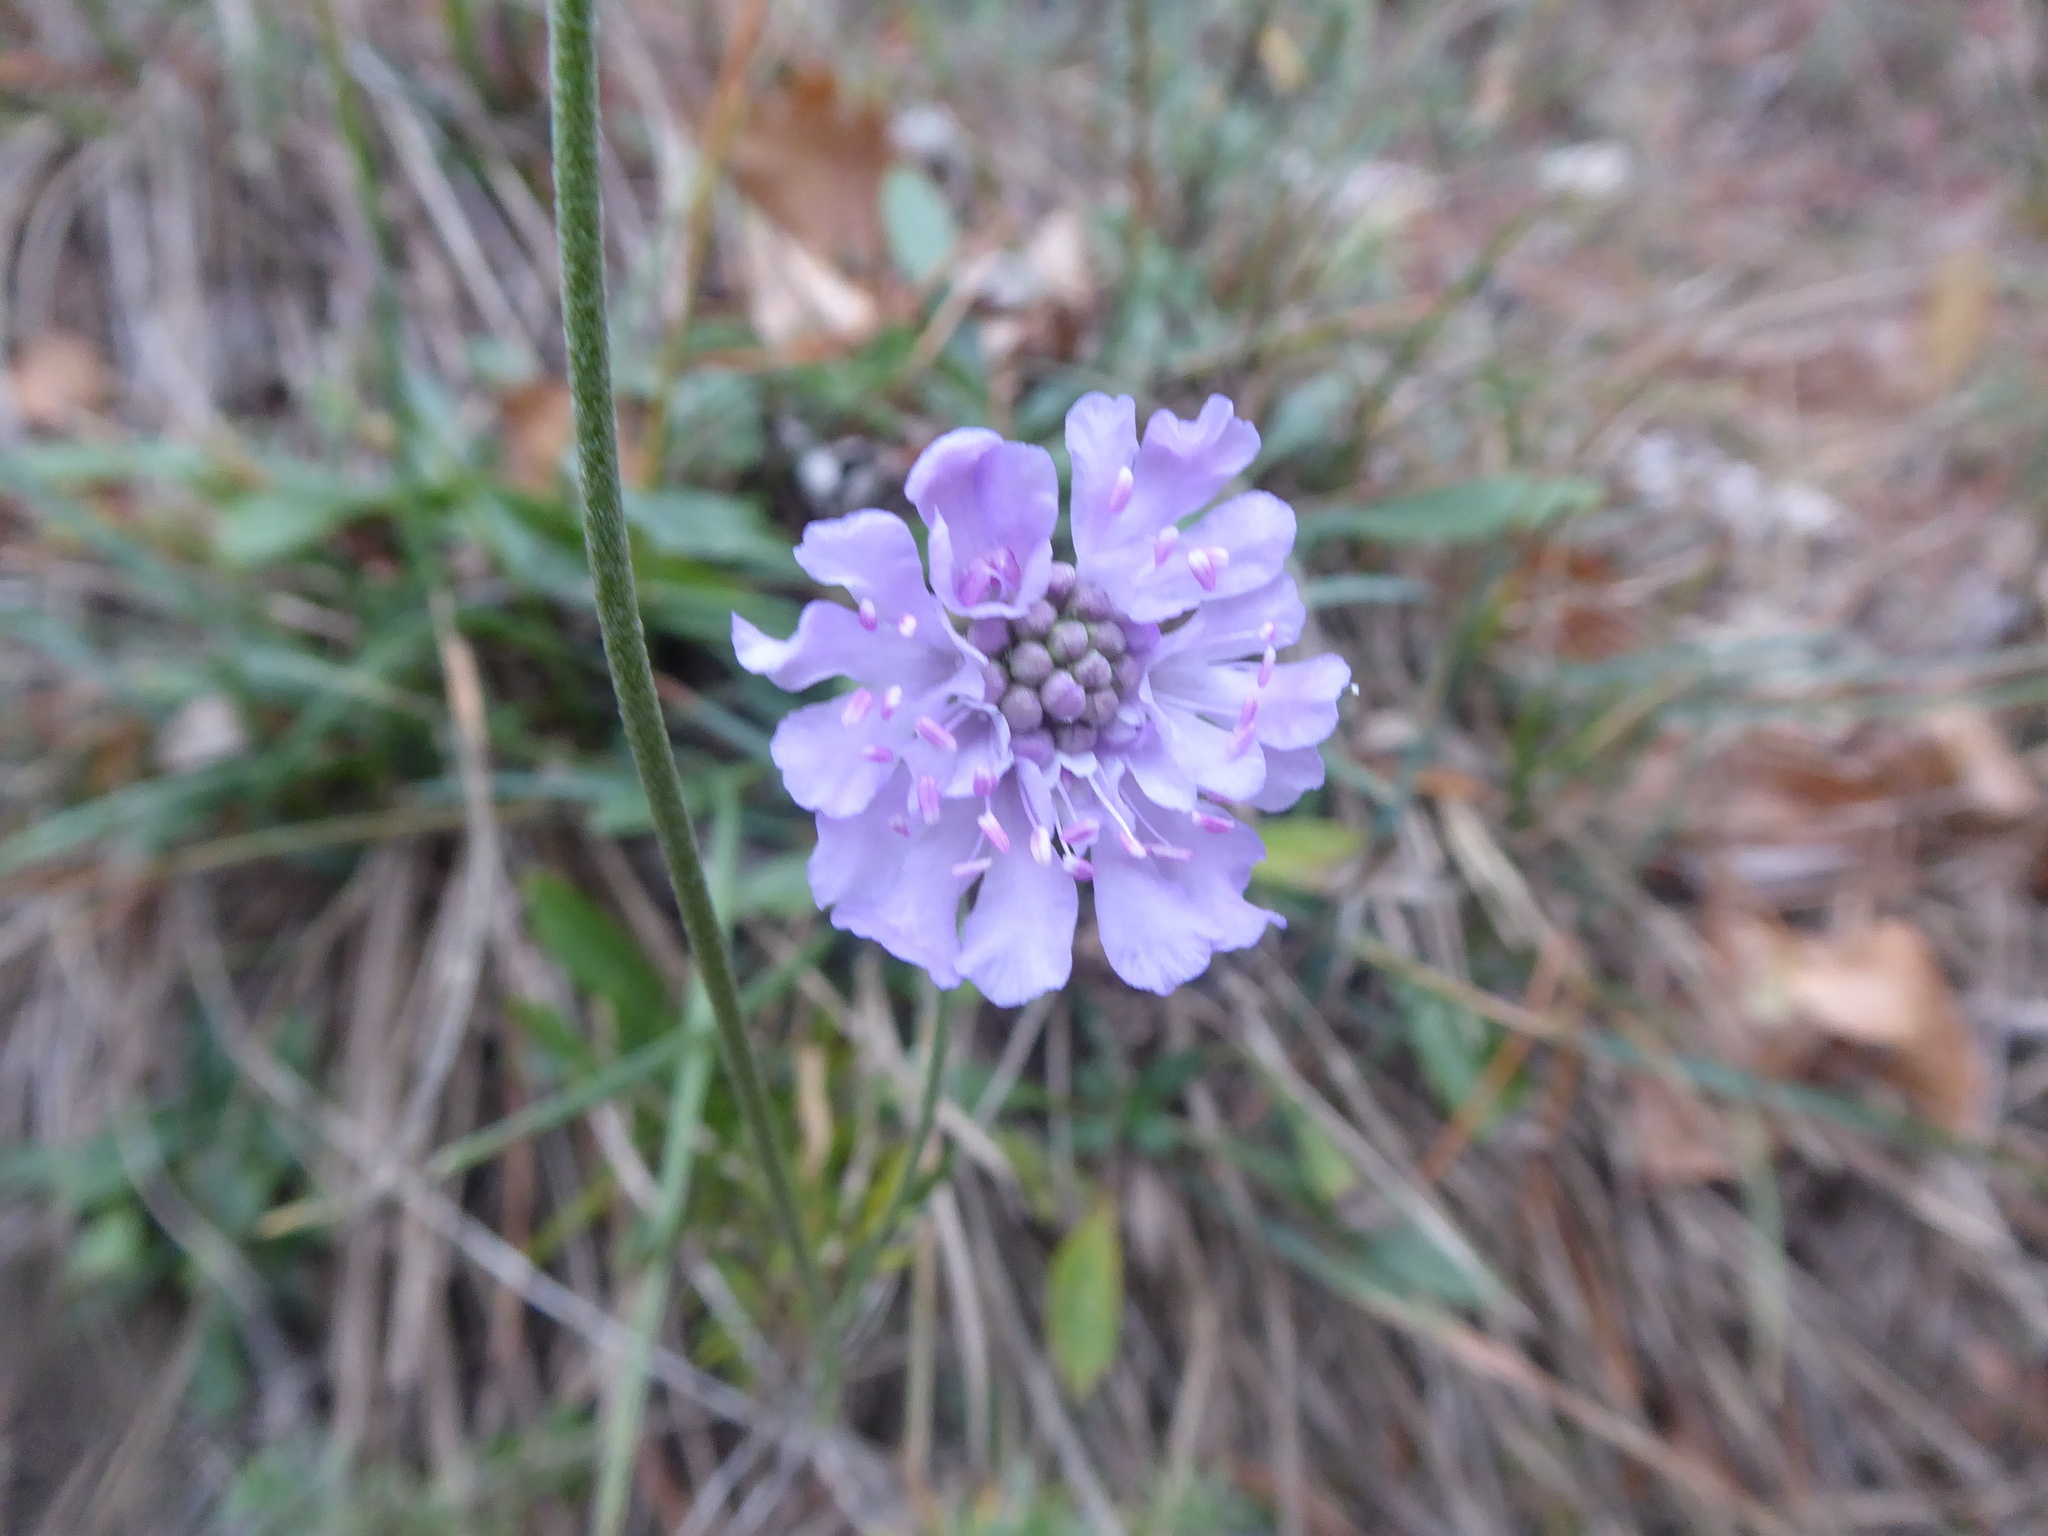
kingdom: Plantae
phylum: Tracheophyta
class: Magnoliopsida
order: Dipsacales
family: Caprifoliaceae
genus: Scabiosa
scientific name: Scabiosa canescens
